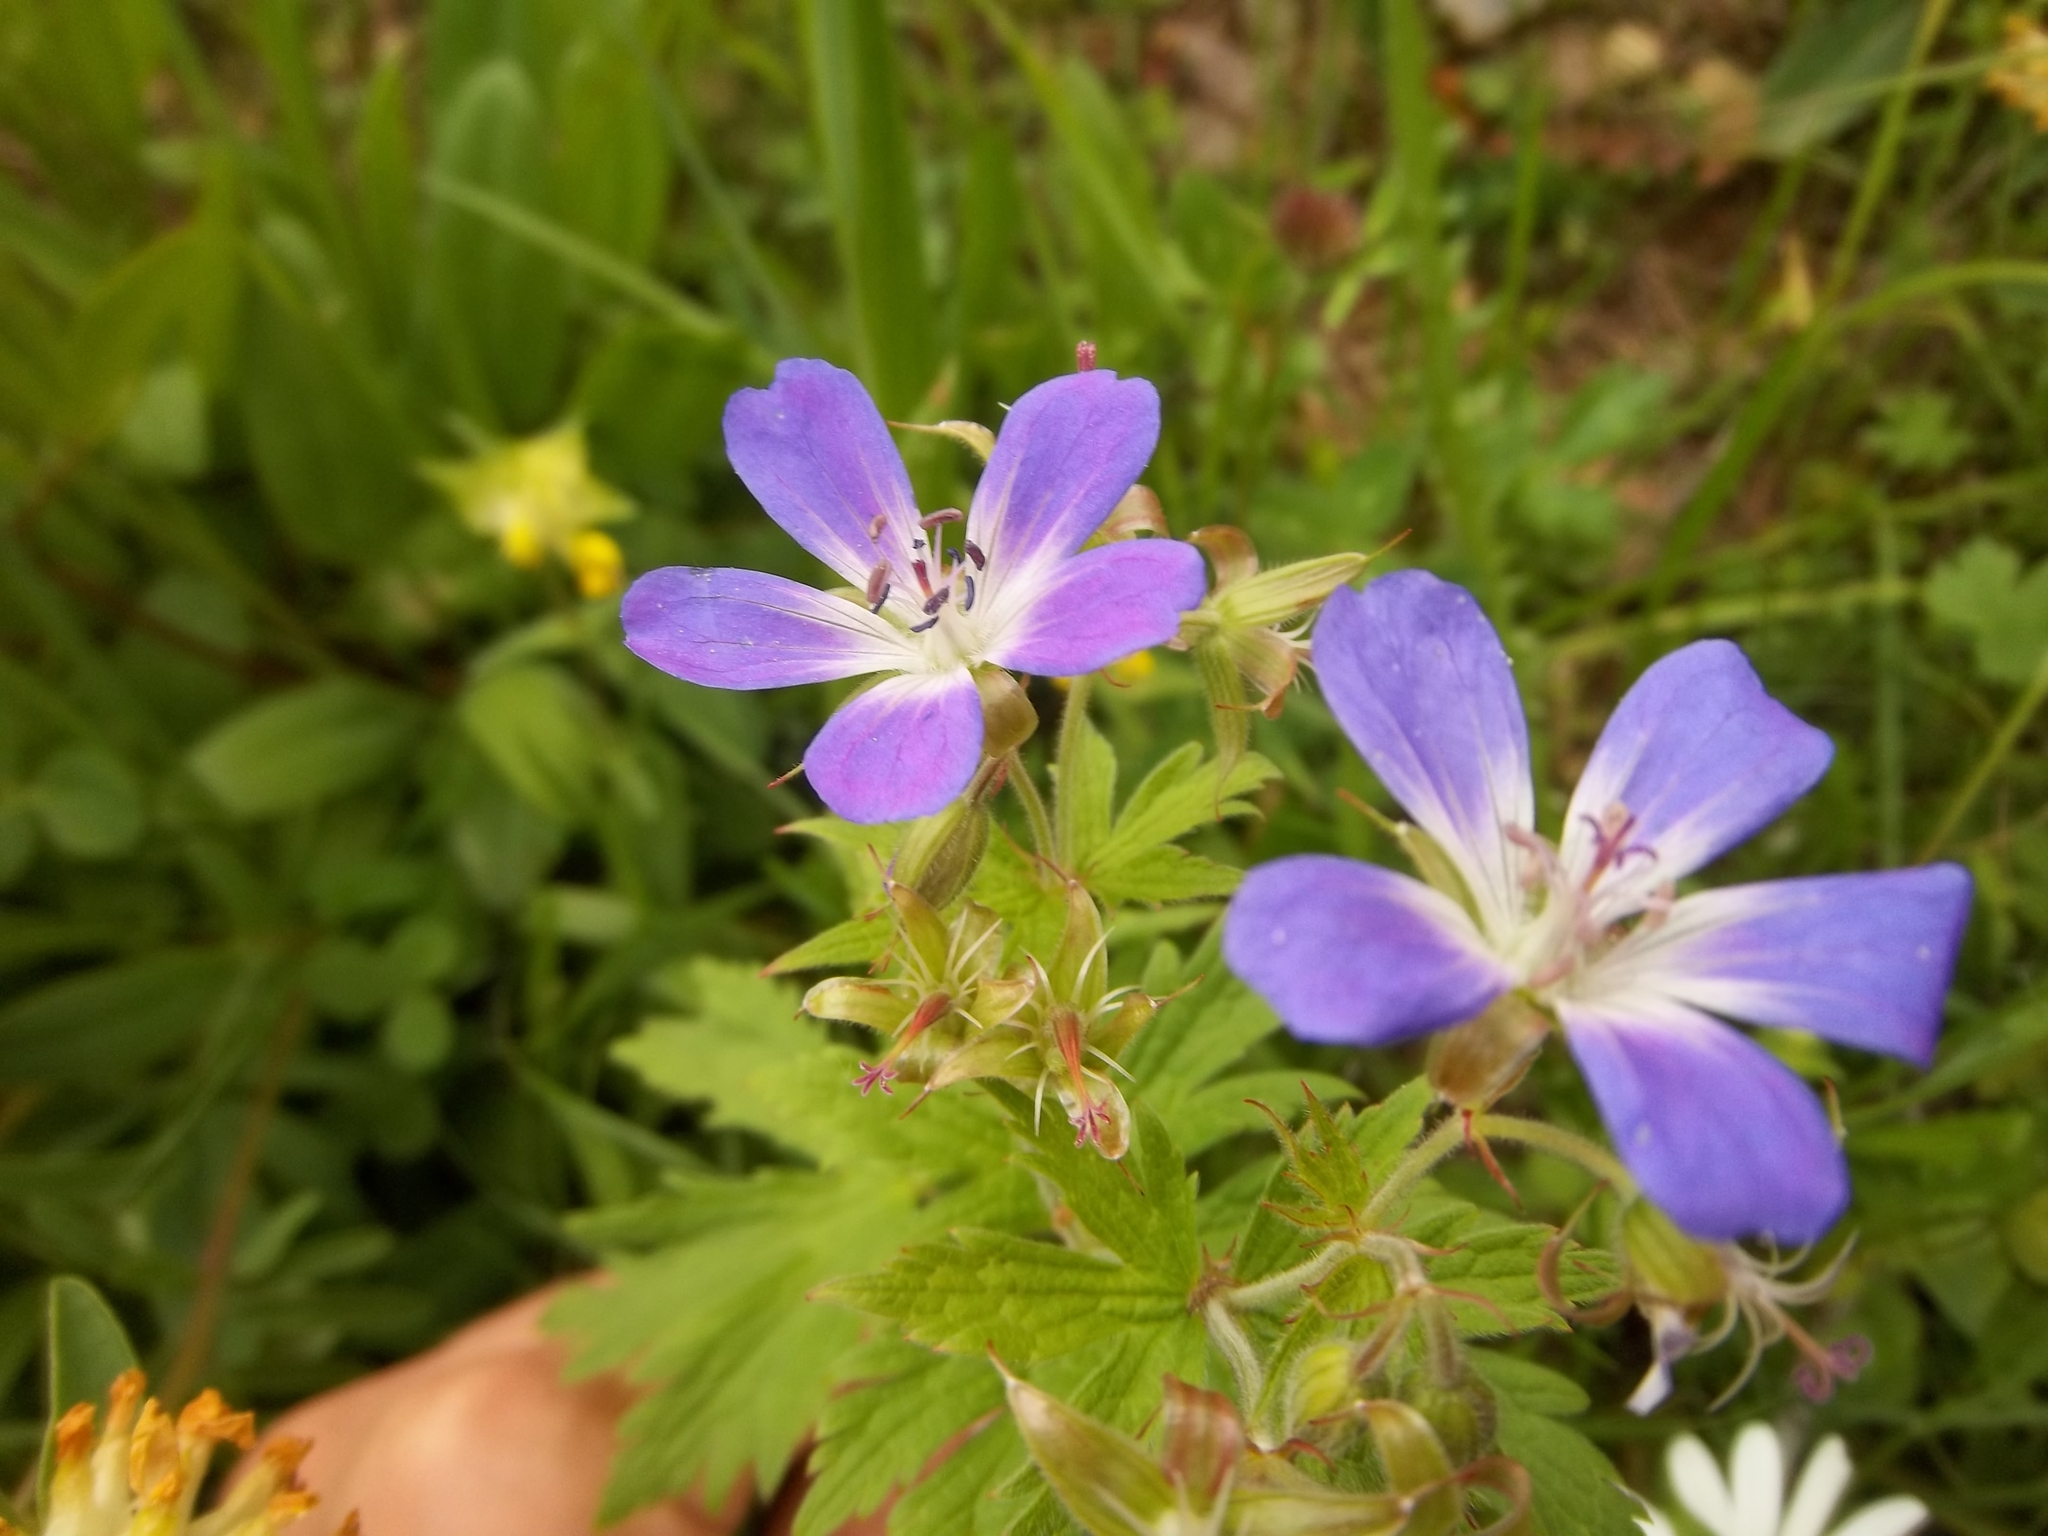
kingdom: Plantae
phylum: Tracheophyta
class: Magnoliopsida
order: Geraniales
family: Geraniaceae
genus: Geranium
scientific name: Geranium sylvaticum
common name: Wood crane's-bill
